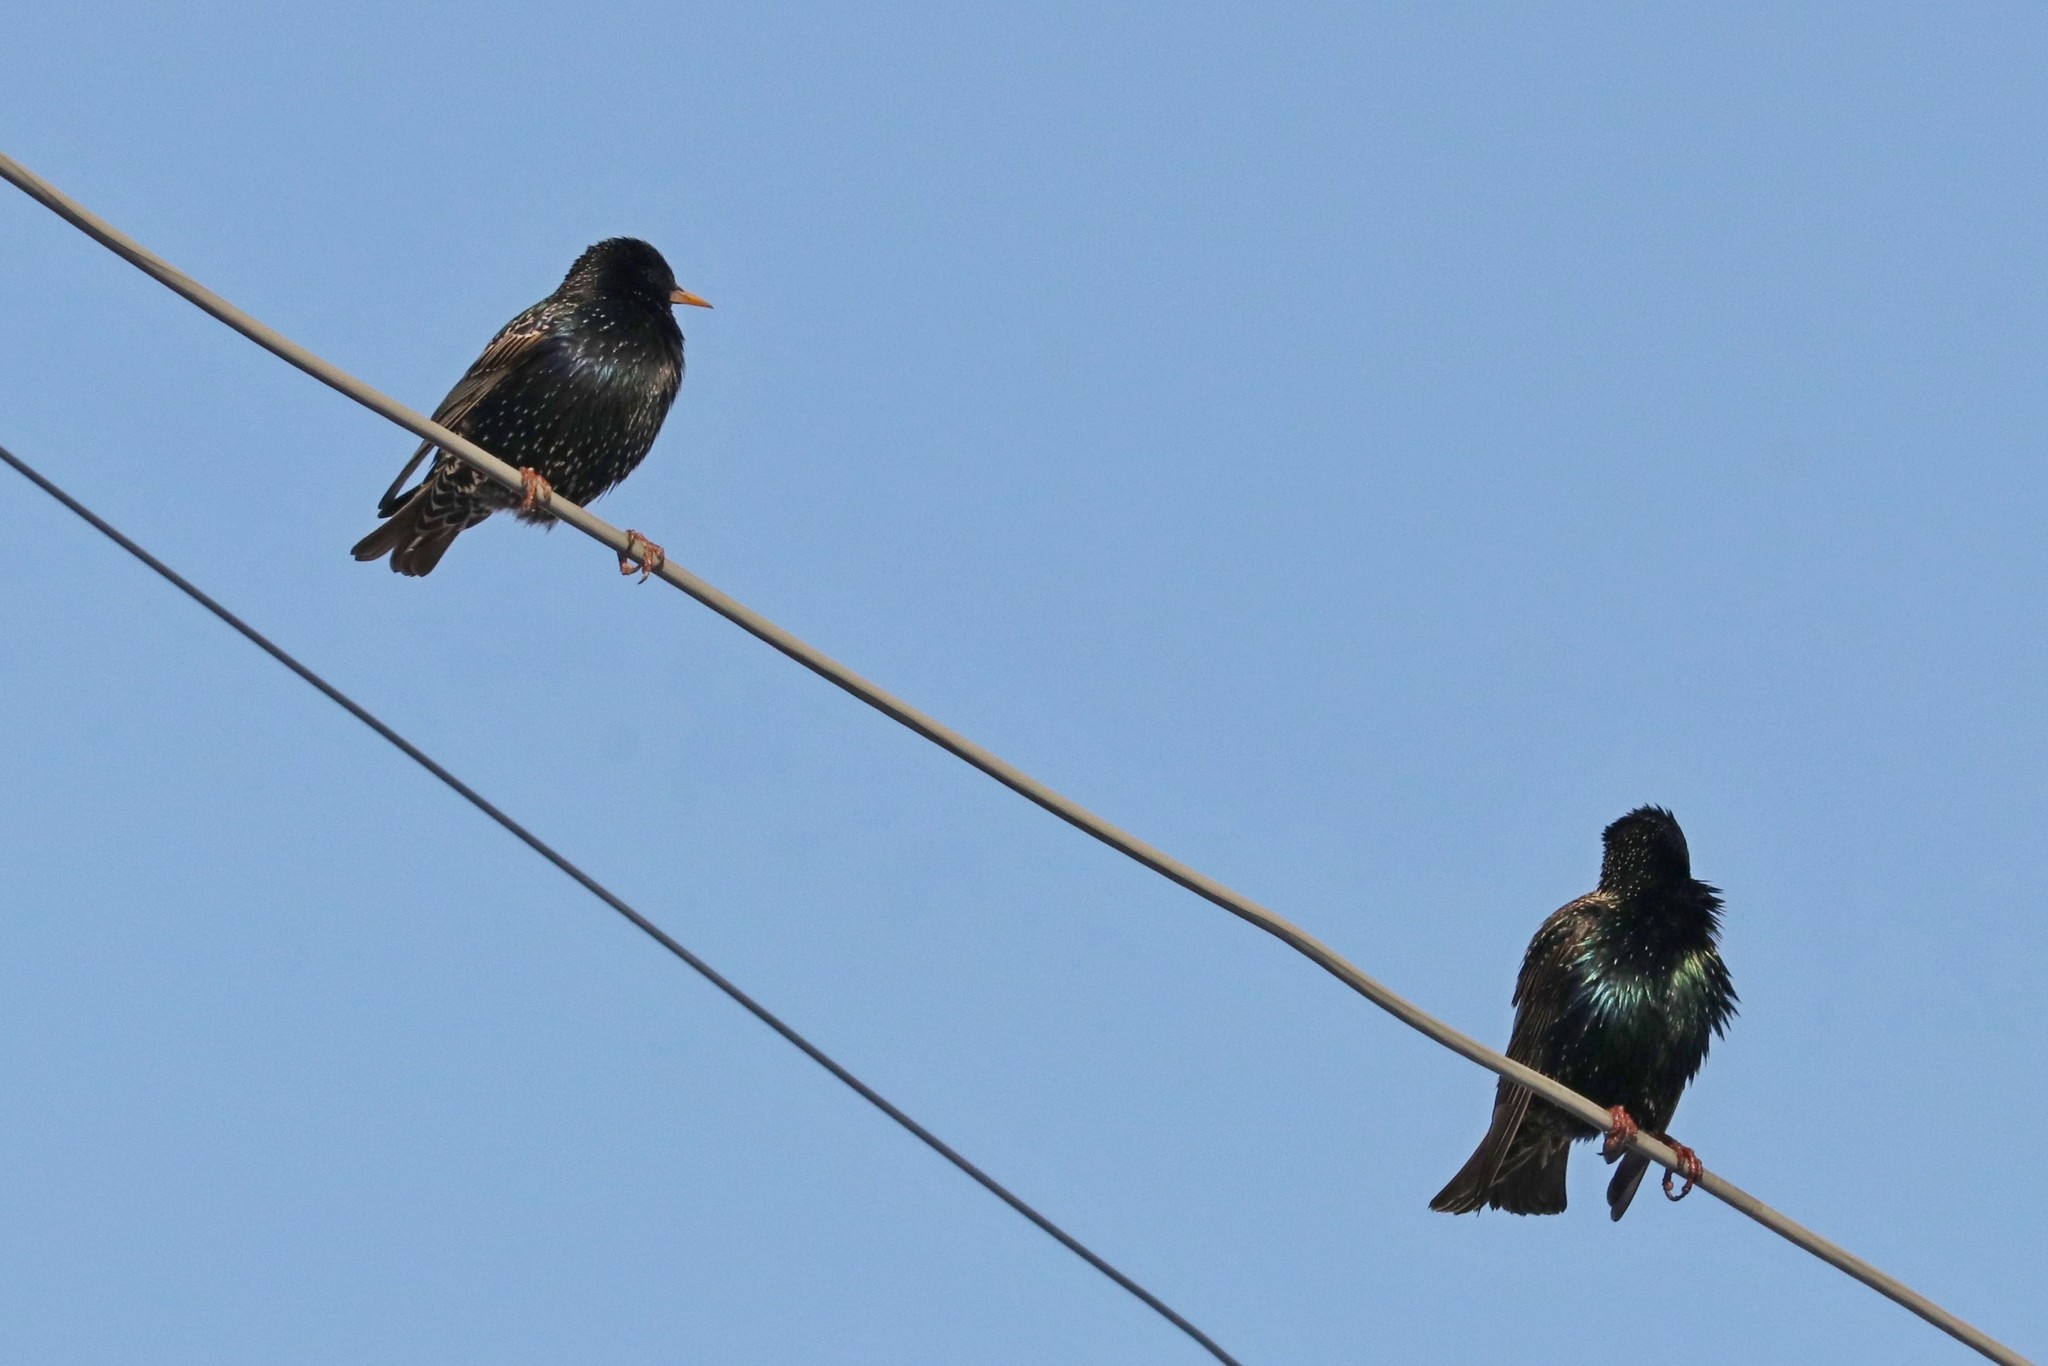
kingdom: Animalia
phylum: Chordata
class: Aves
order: Passeriformes
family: Sturnidae
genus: Sturnus
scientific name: Sturnus vulgaris
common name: Common starling
